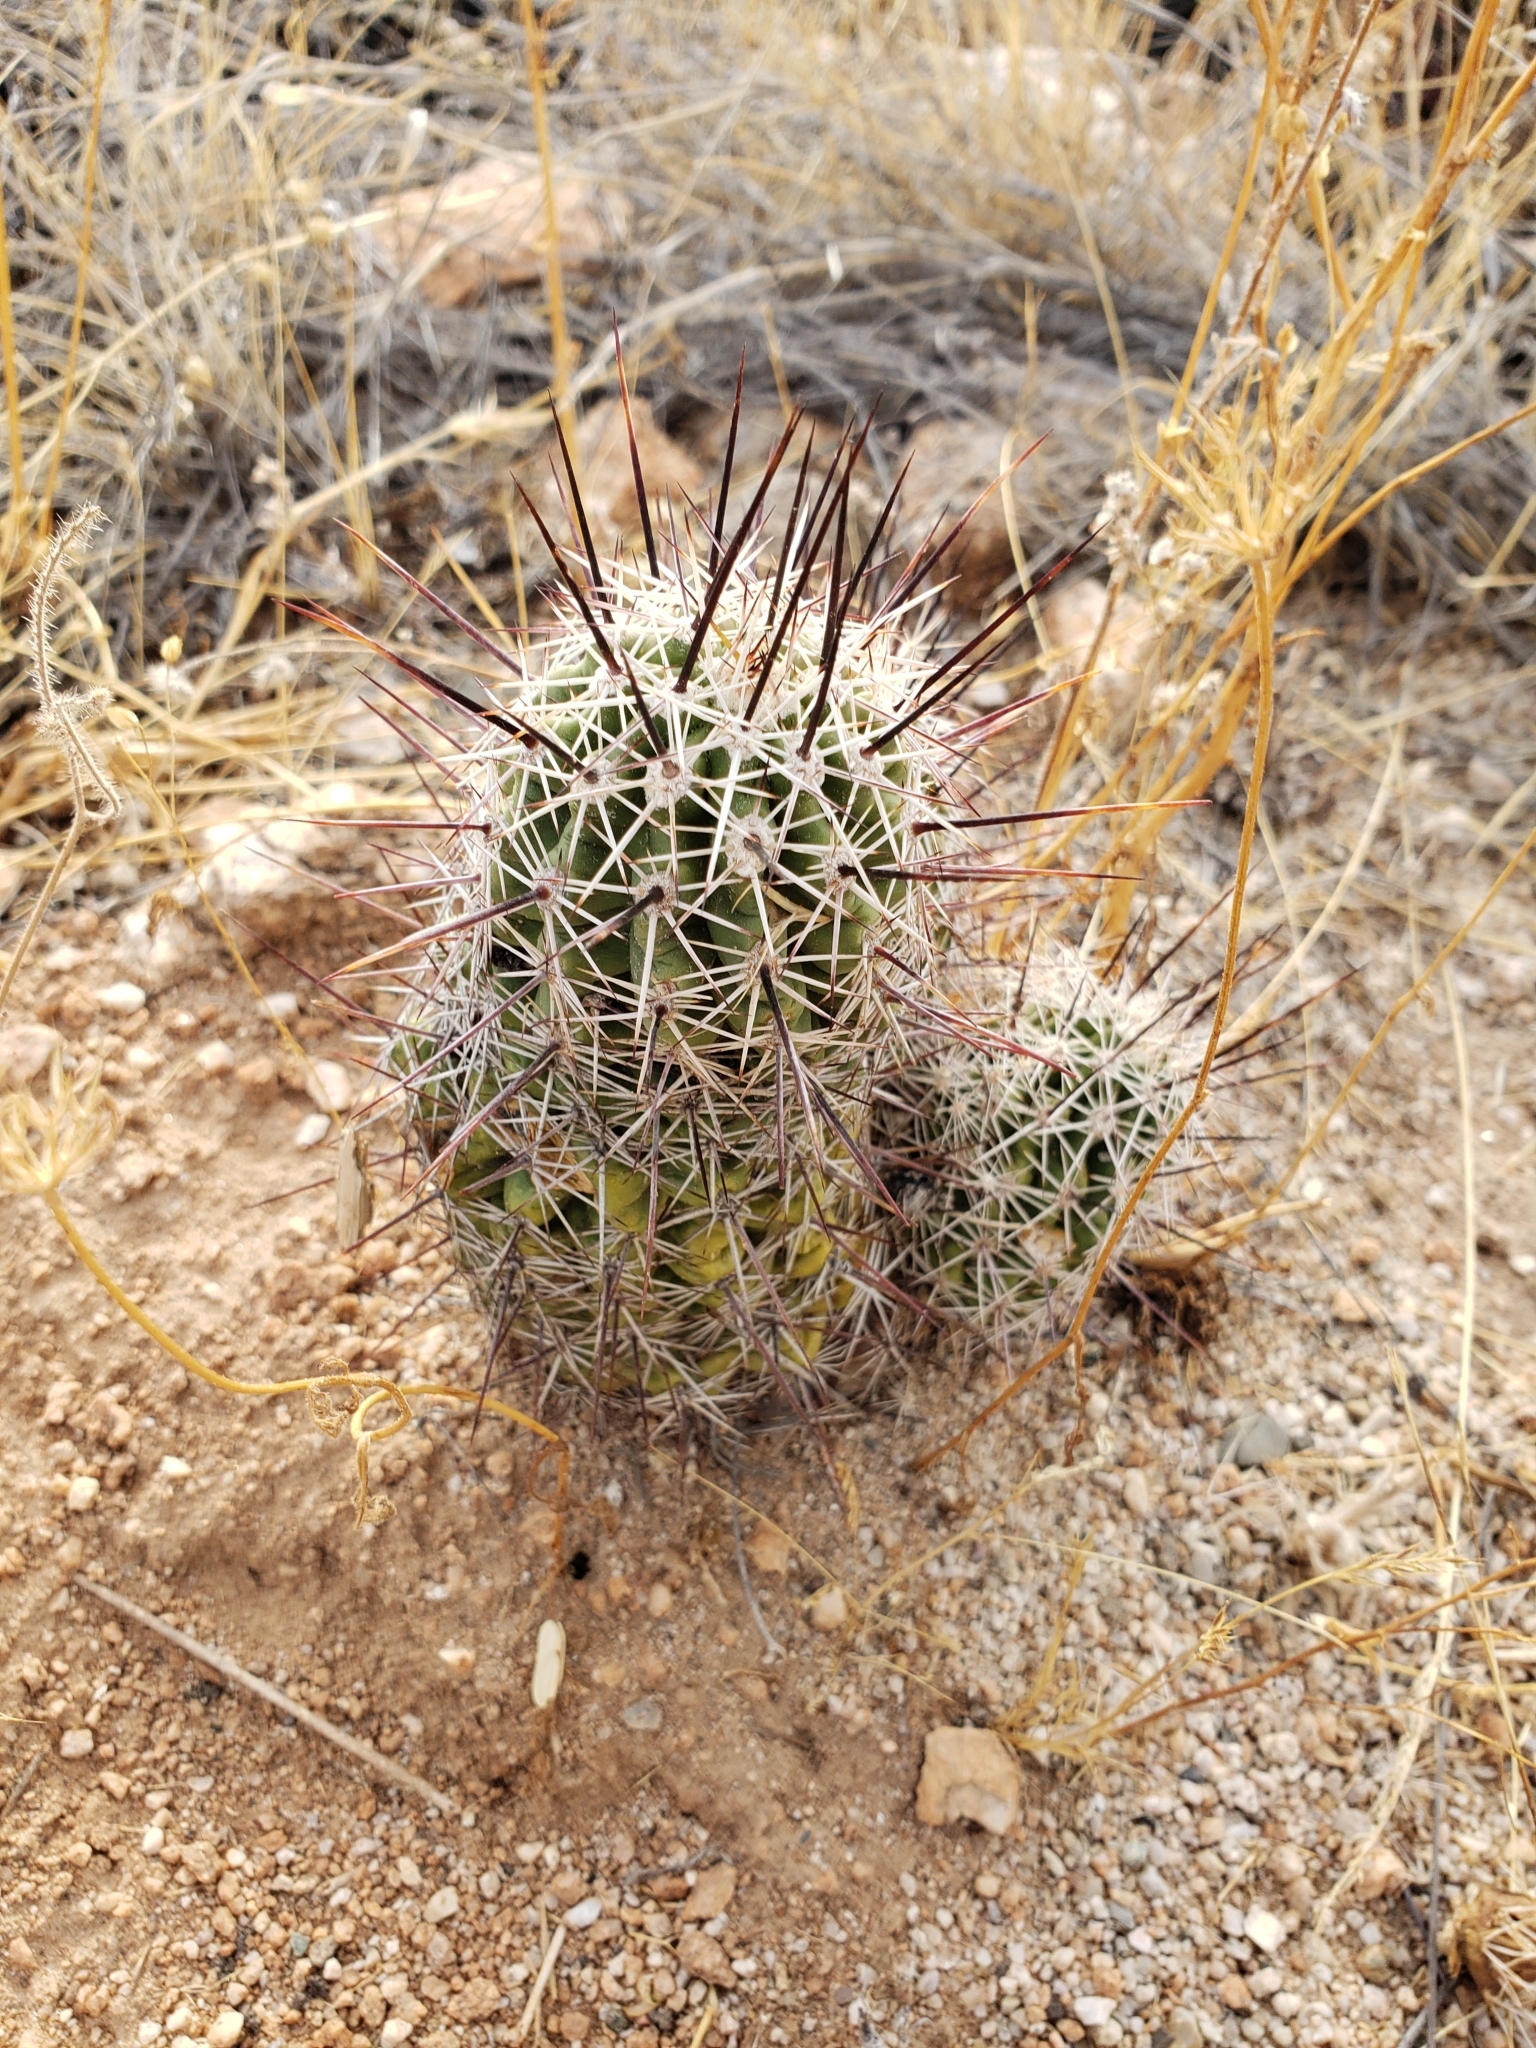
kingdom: Plantae
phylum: Tracheophyta
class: Magnoliopsida
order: Caryophyllales
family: Cactaceae
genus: Echinocereus
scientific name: Echinocereus fasciculatus
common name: Bundle hedgehog
